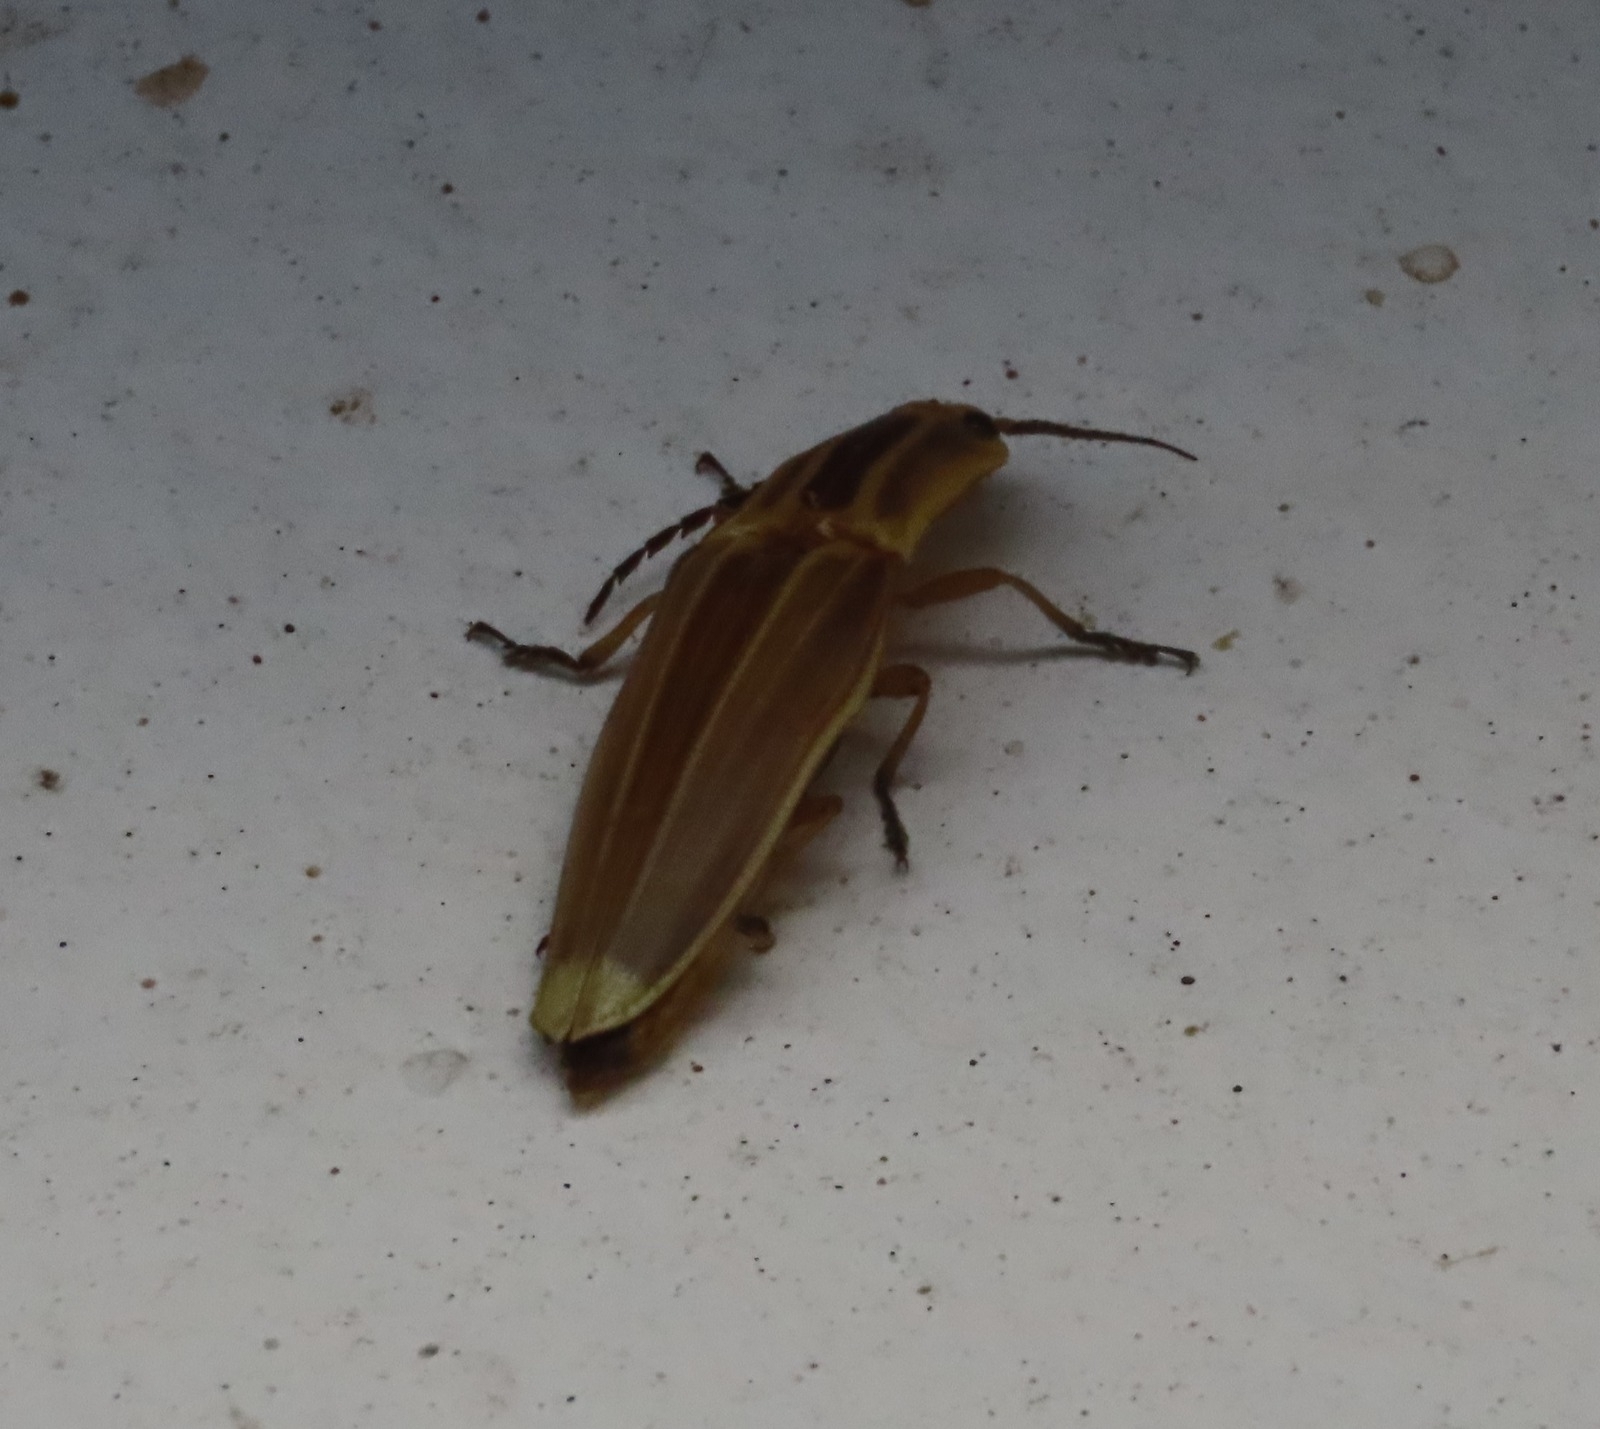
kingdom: Animalia
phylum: Arthropoda
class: Insecta
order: Coleoptera
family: Elateridae
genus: Semiotus
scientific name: Semiotus ligneus
